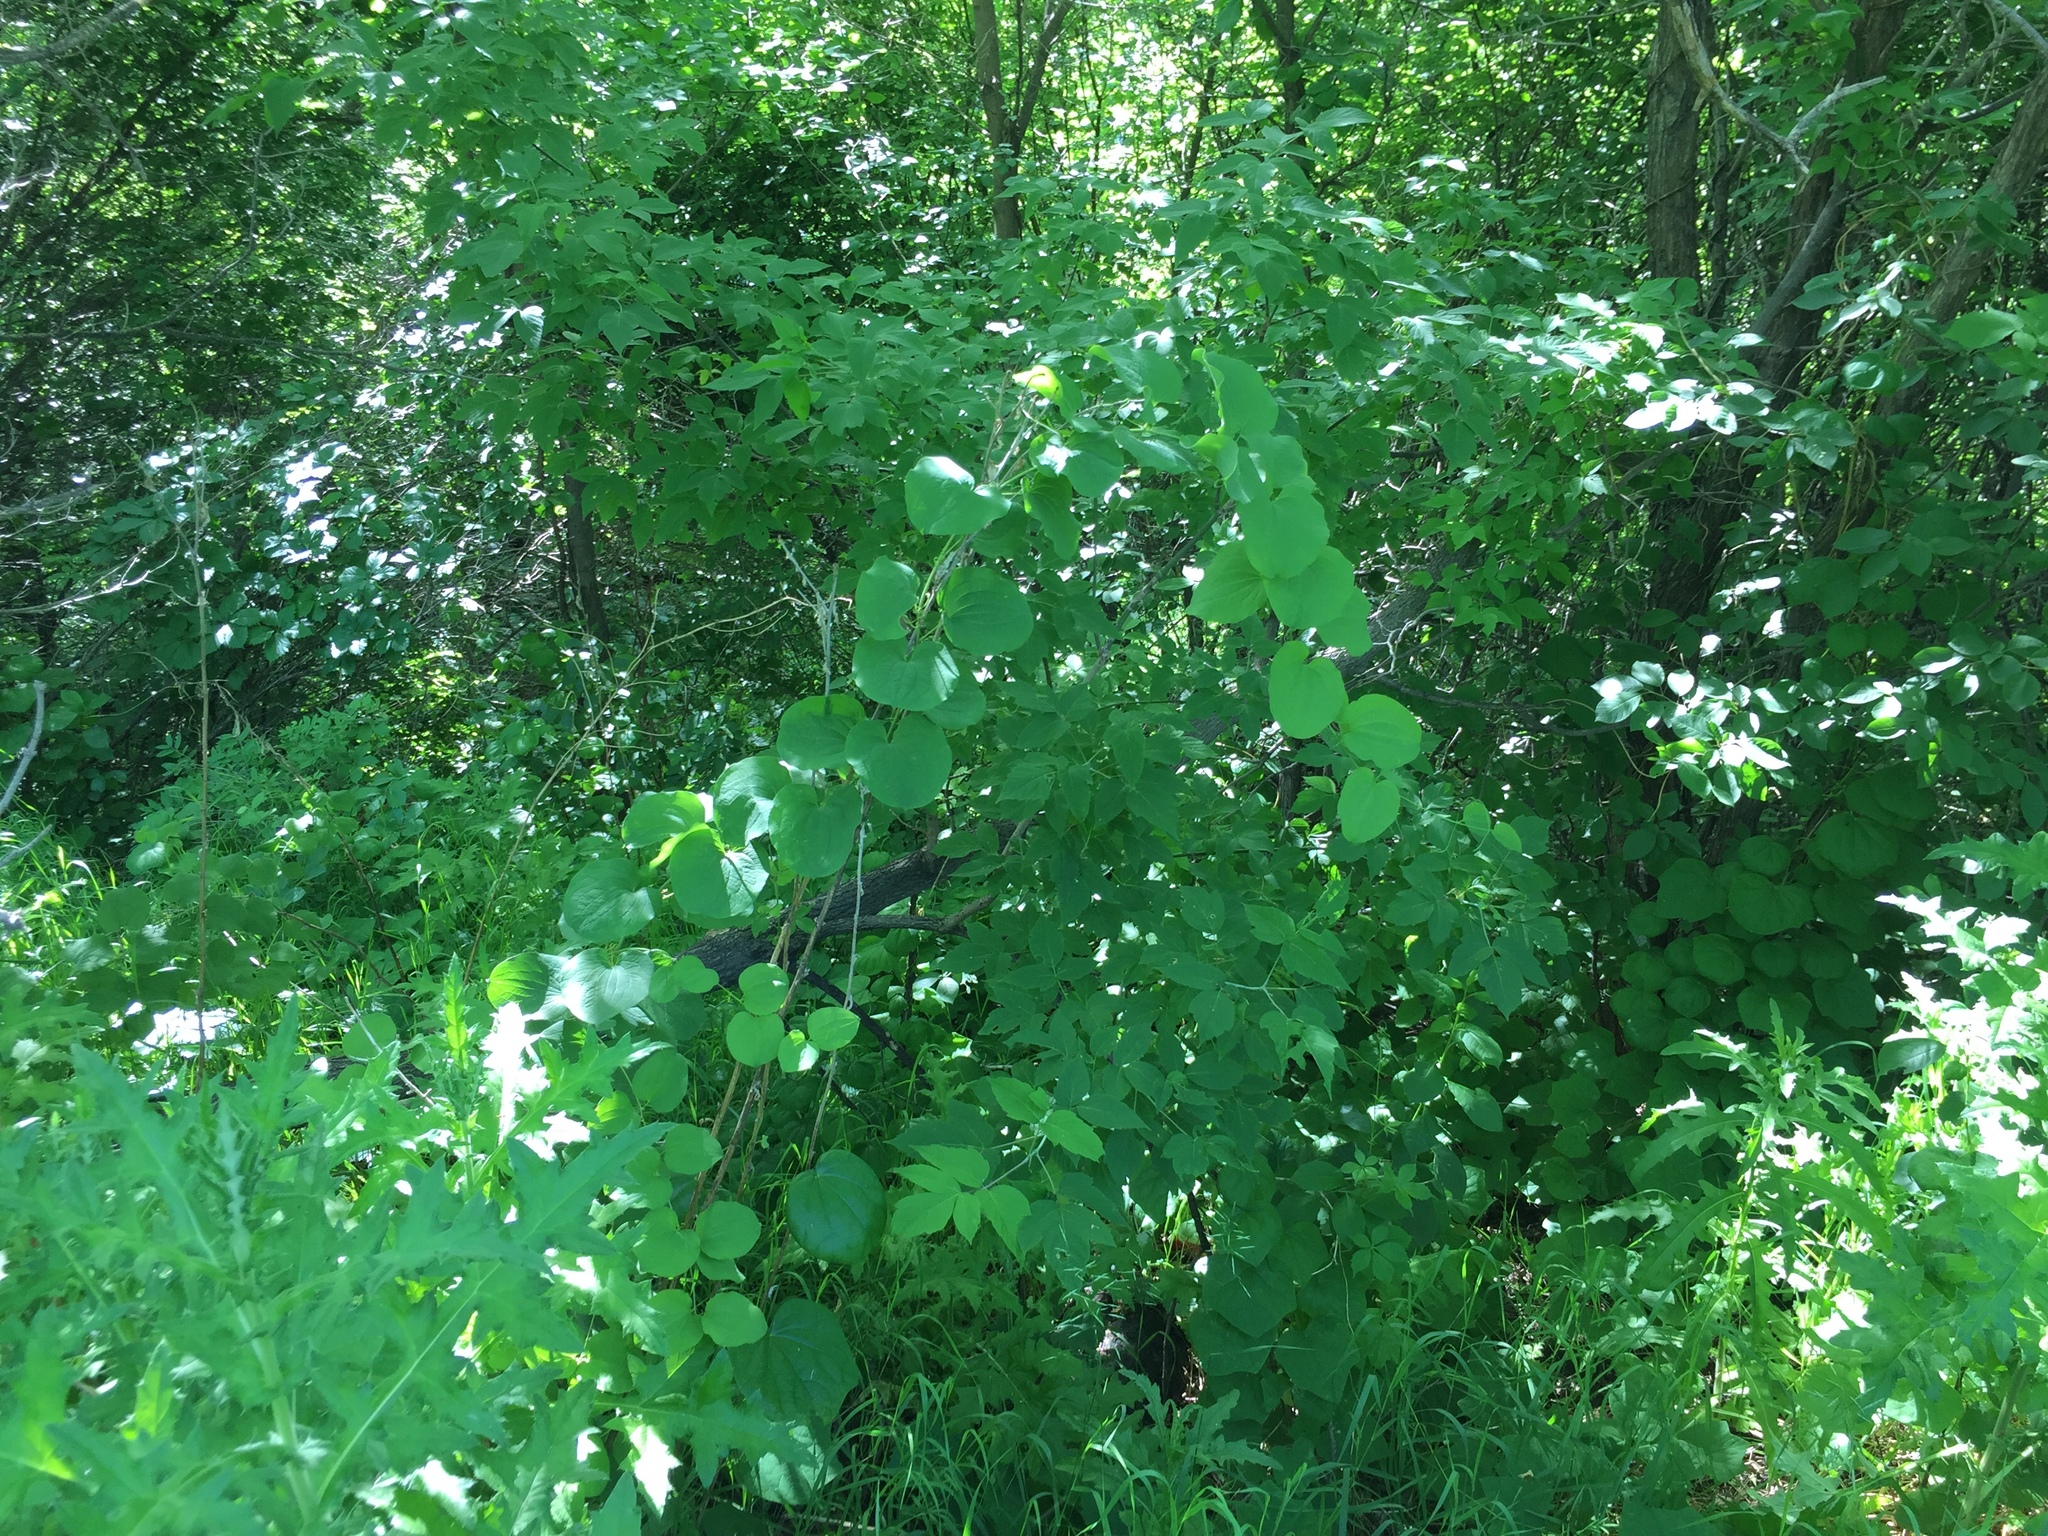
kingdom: Plantae
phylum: Tracheophyta
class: Liliopsida
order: Liliales
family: Smilacaceae
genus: Smilax
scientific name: Smilax lasioneura
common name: Blue ridge carrionflower
